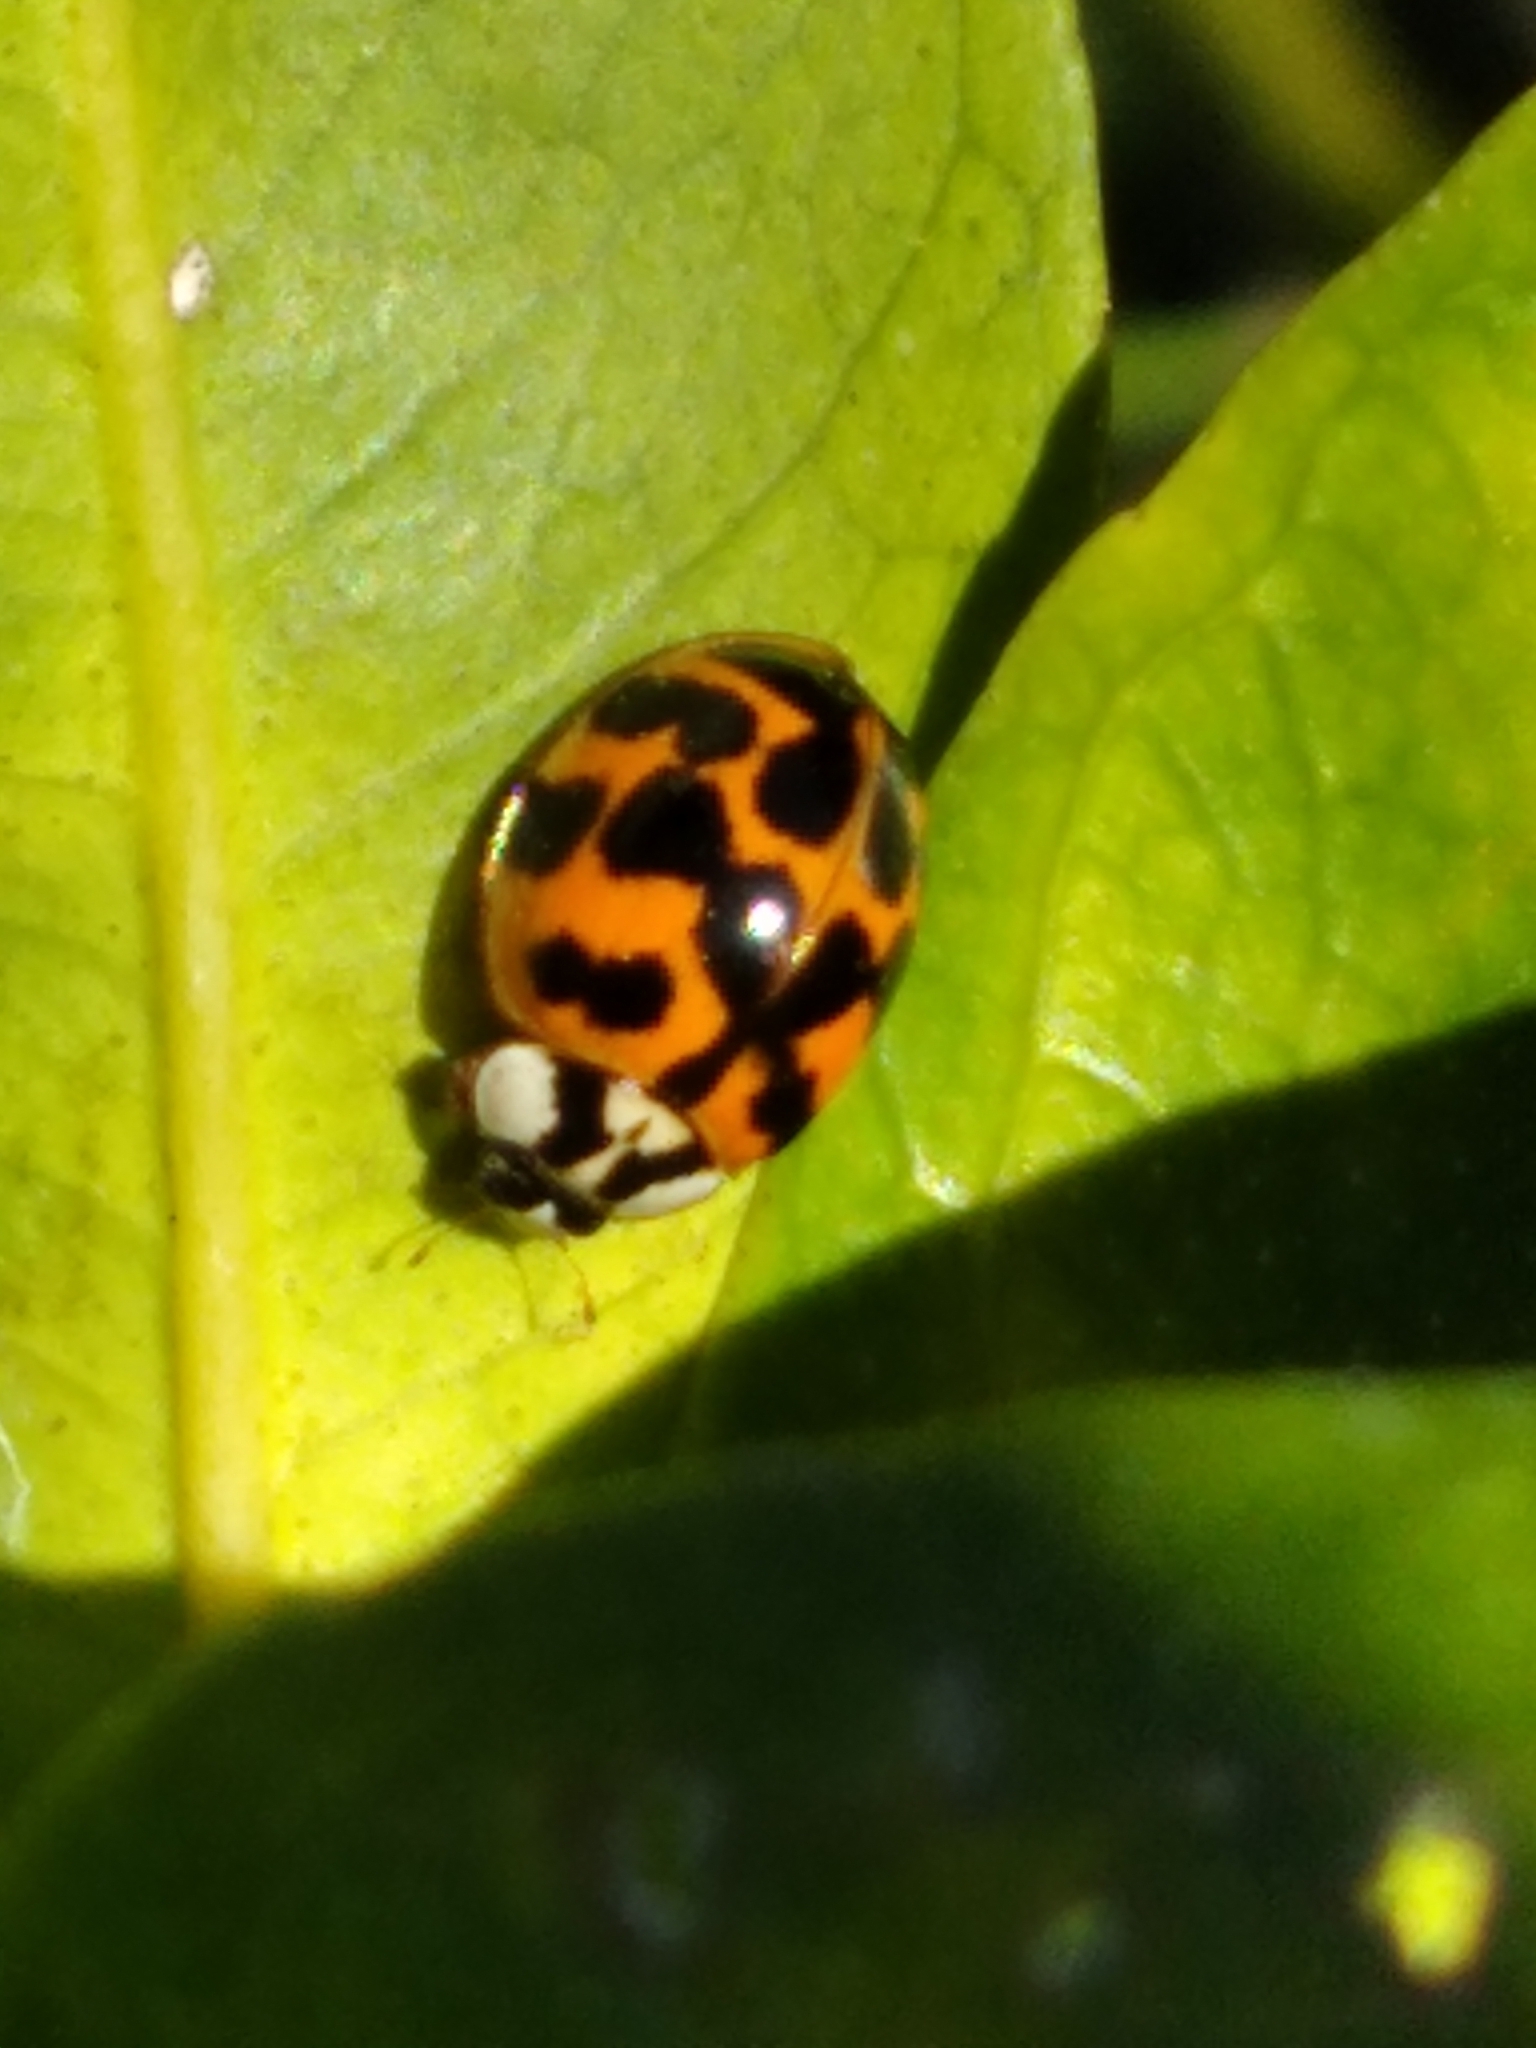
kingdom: Animalia
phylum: Arthropoda
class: Insecta
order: Coleoptera
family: Coccinellidae
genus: Harmonia
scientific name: Harmonia axyridis
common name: Harlequin ladybird
